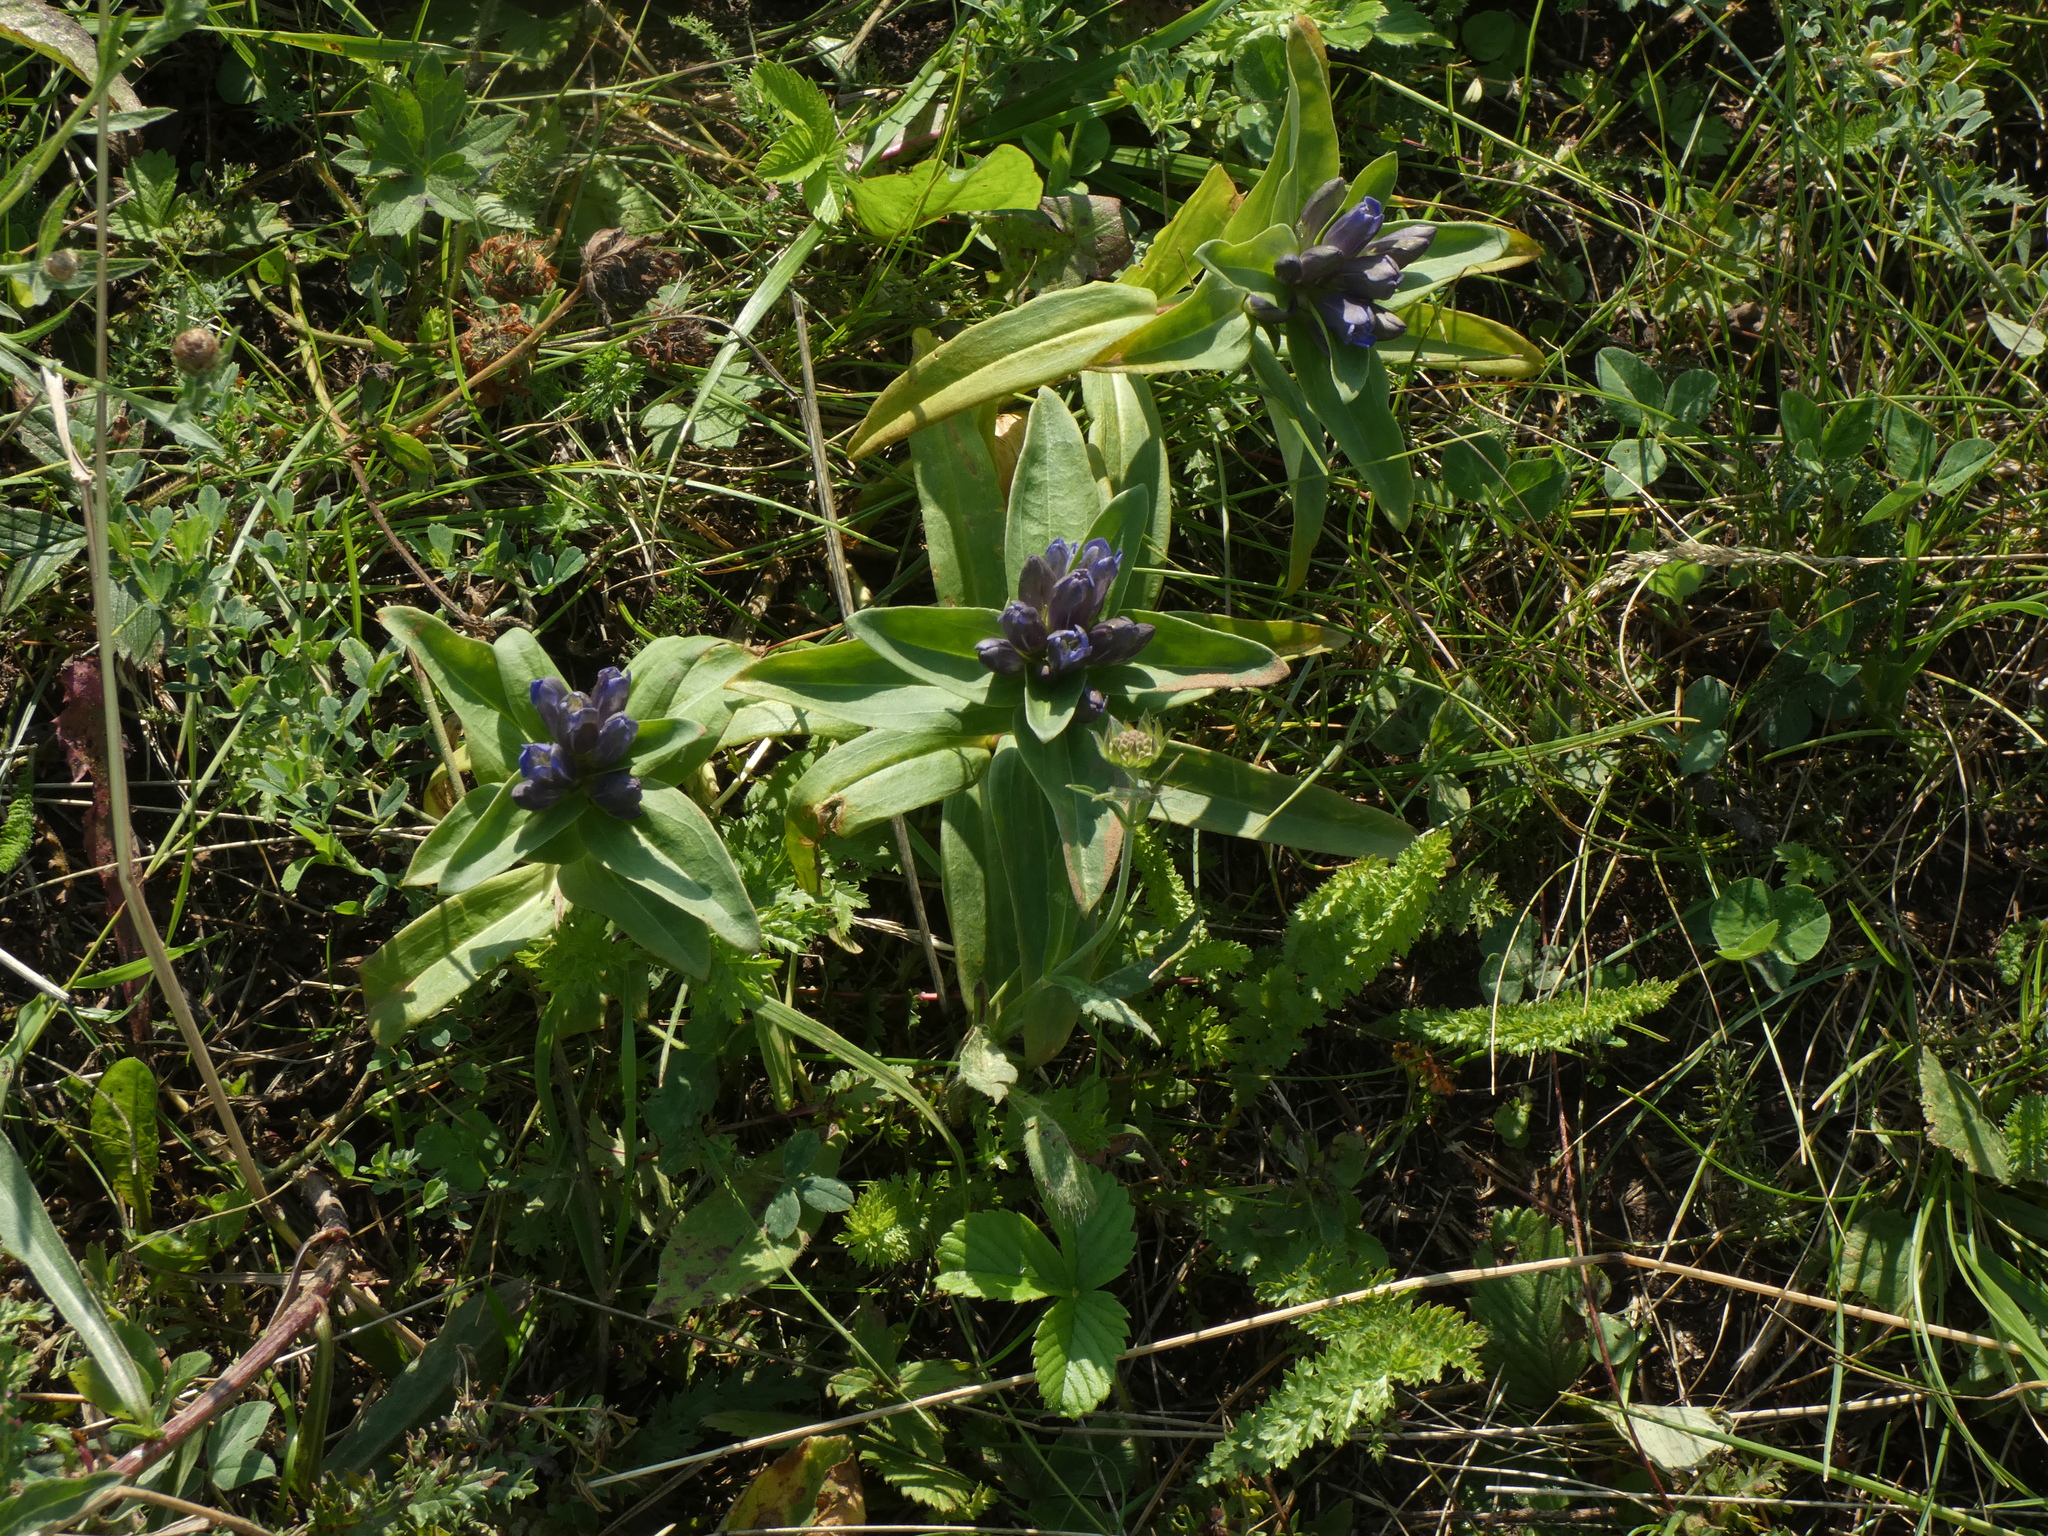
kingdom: Plantae
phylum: Tracheophyta
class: Magnoliopsida
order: Gentianales
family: Gentianaceae
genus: Gentiana
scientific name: Gentiana cruciata
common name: Cross gentian
